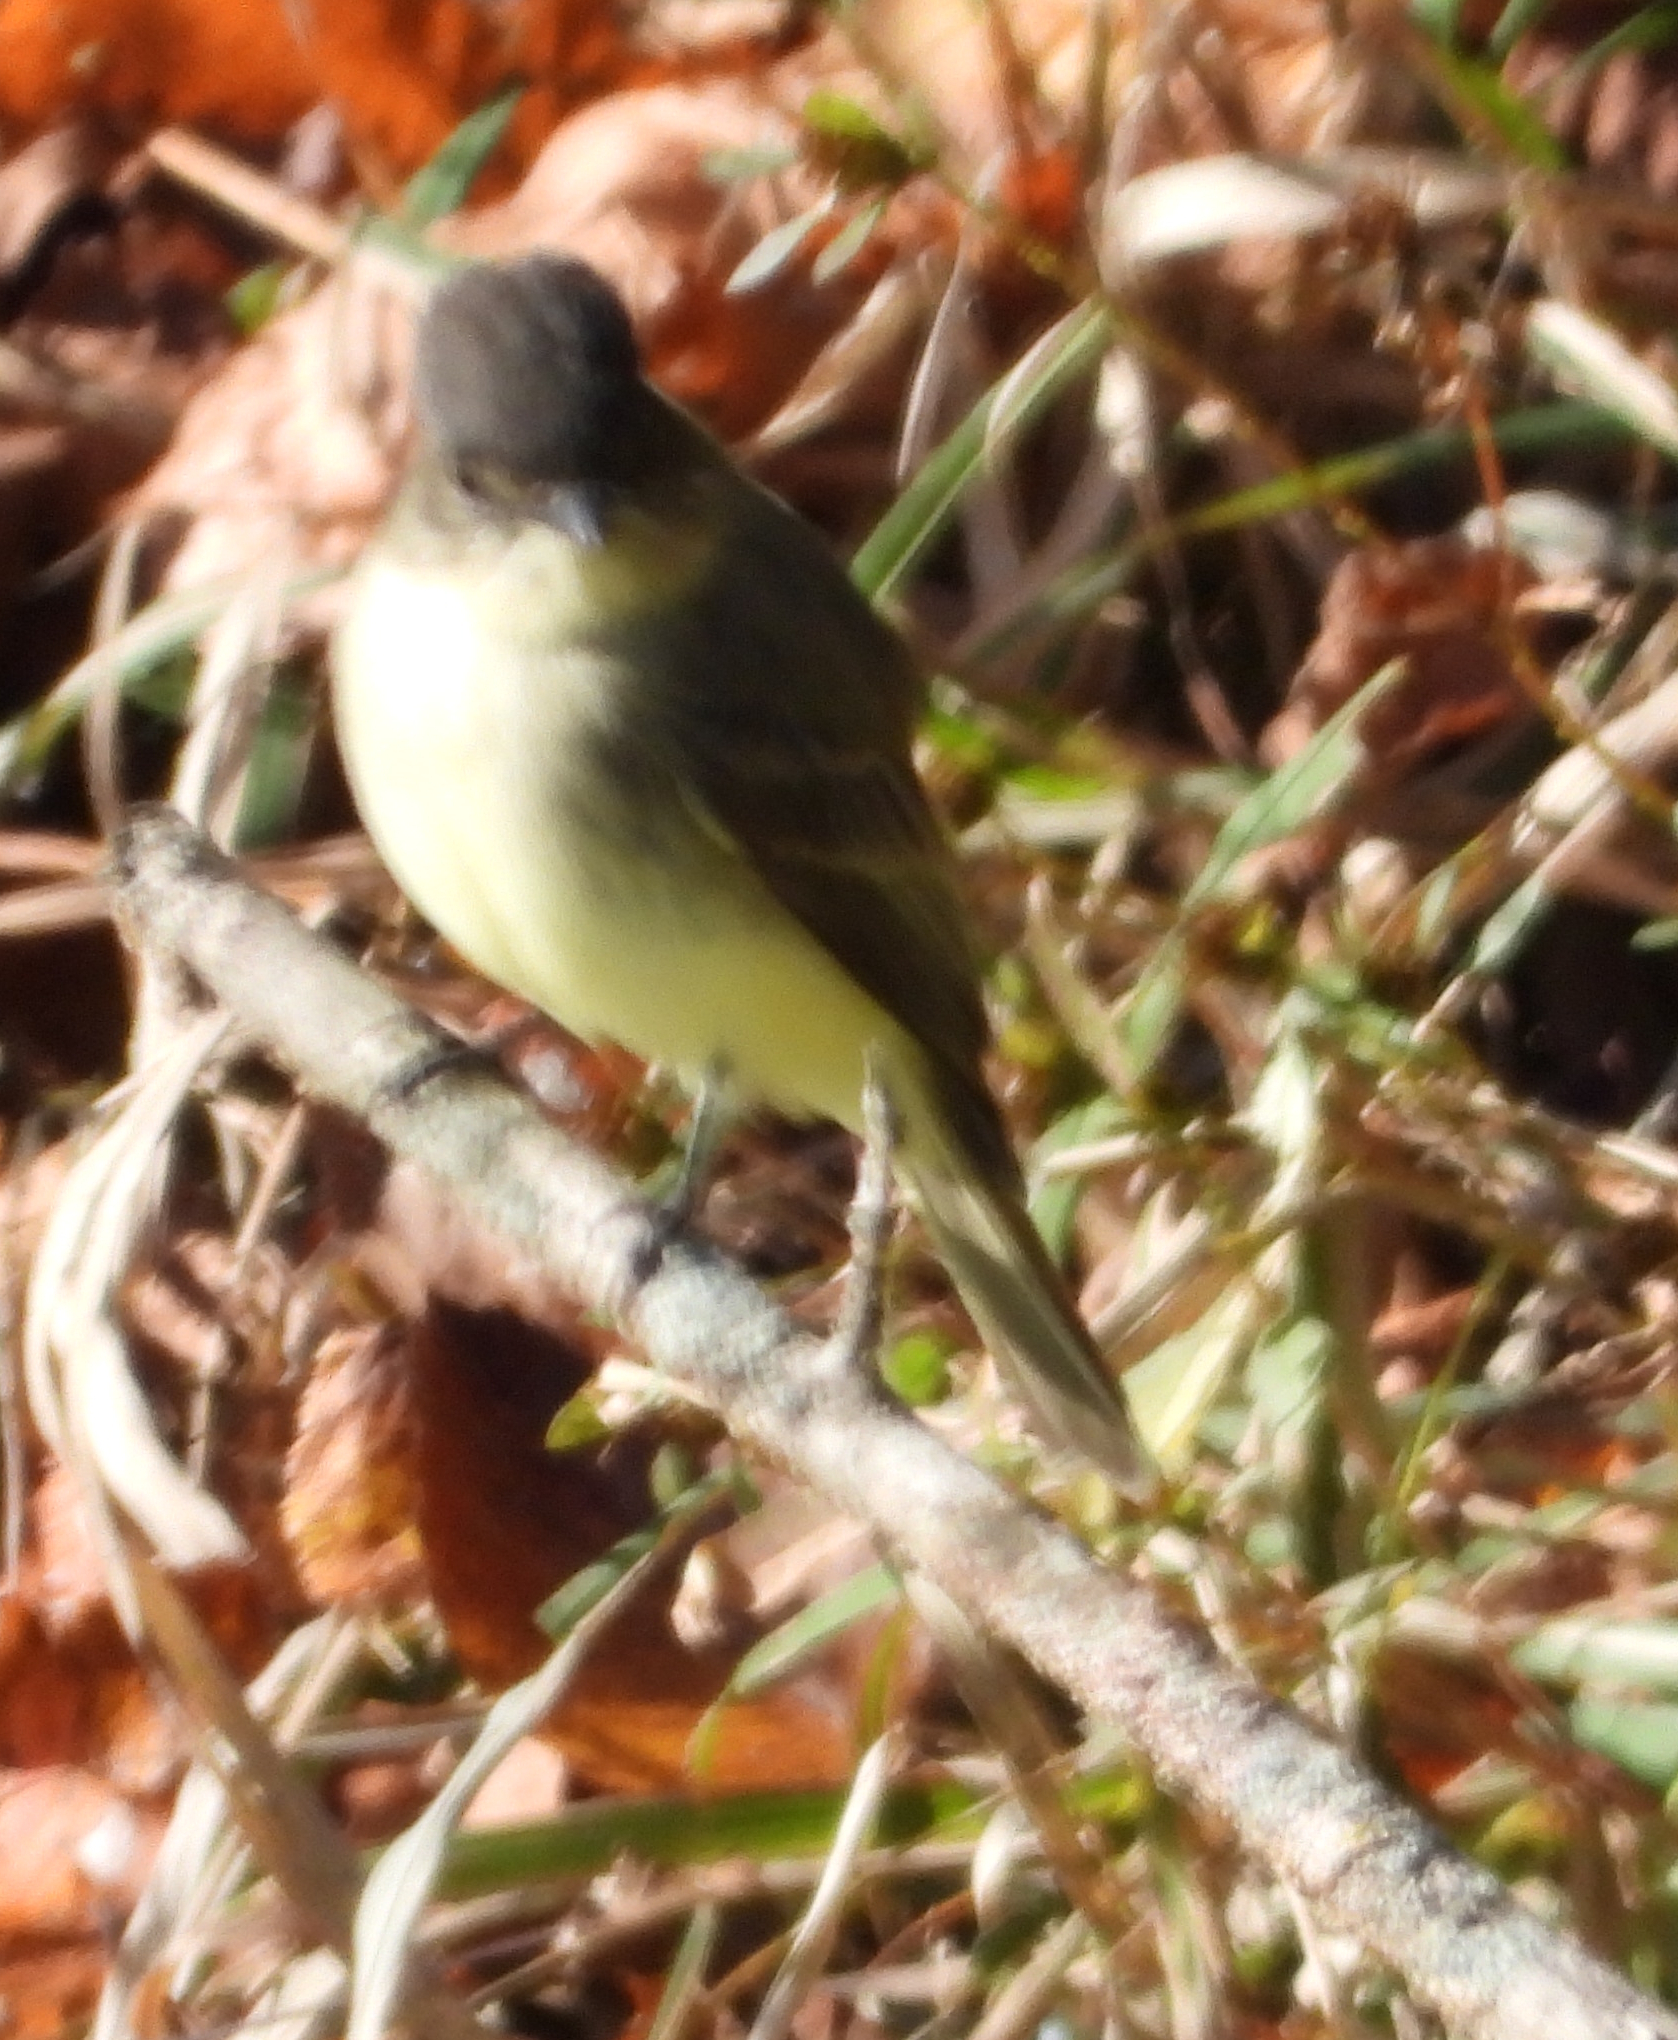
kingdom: Animalia
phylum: Chordata
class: Aves
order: Passeriformes
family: Tyrannidae
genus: Sayornis
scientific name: Sayornis phoebe
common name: Eastern phoebe
